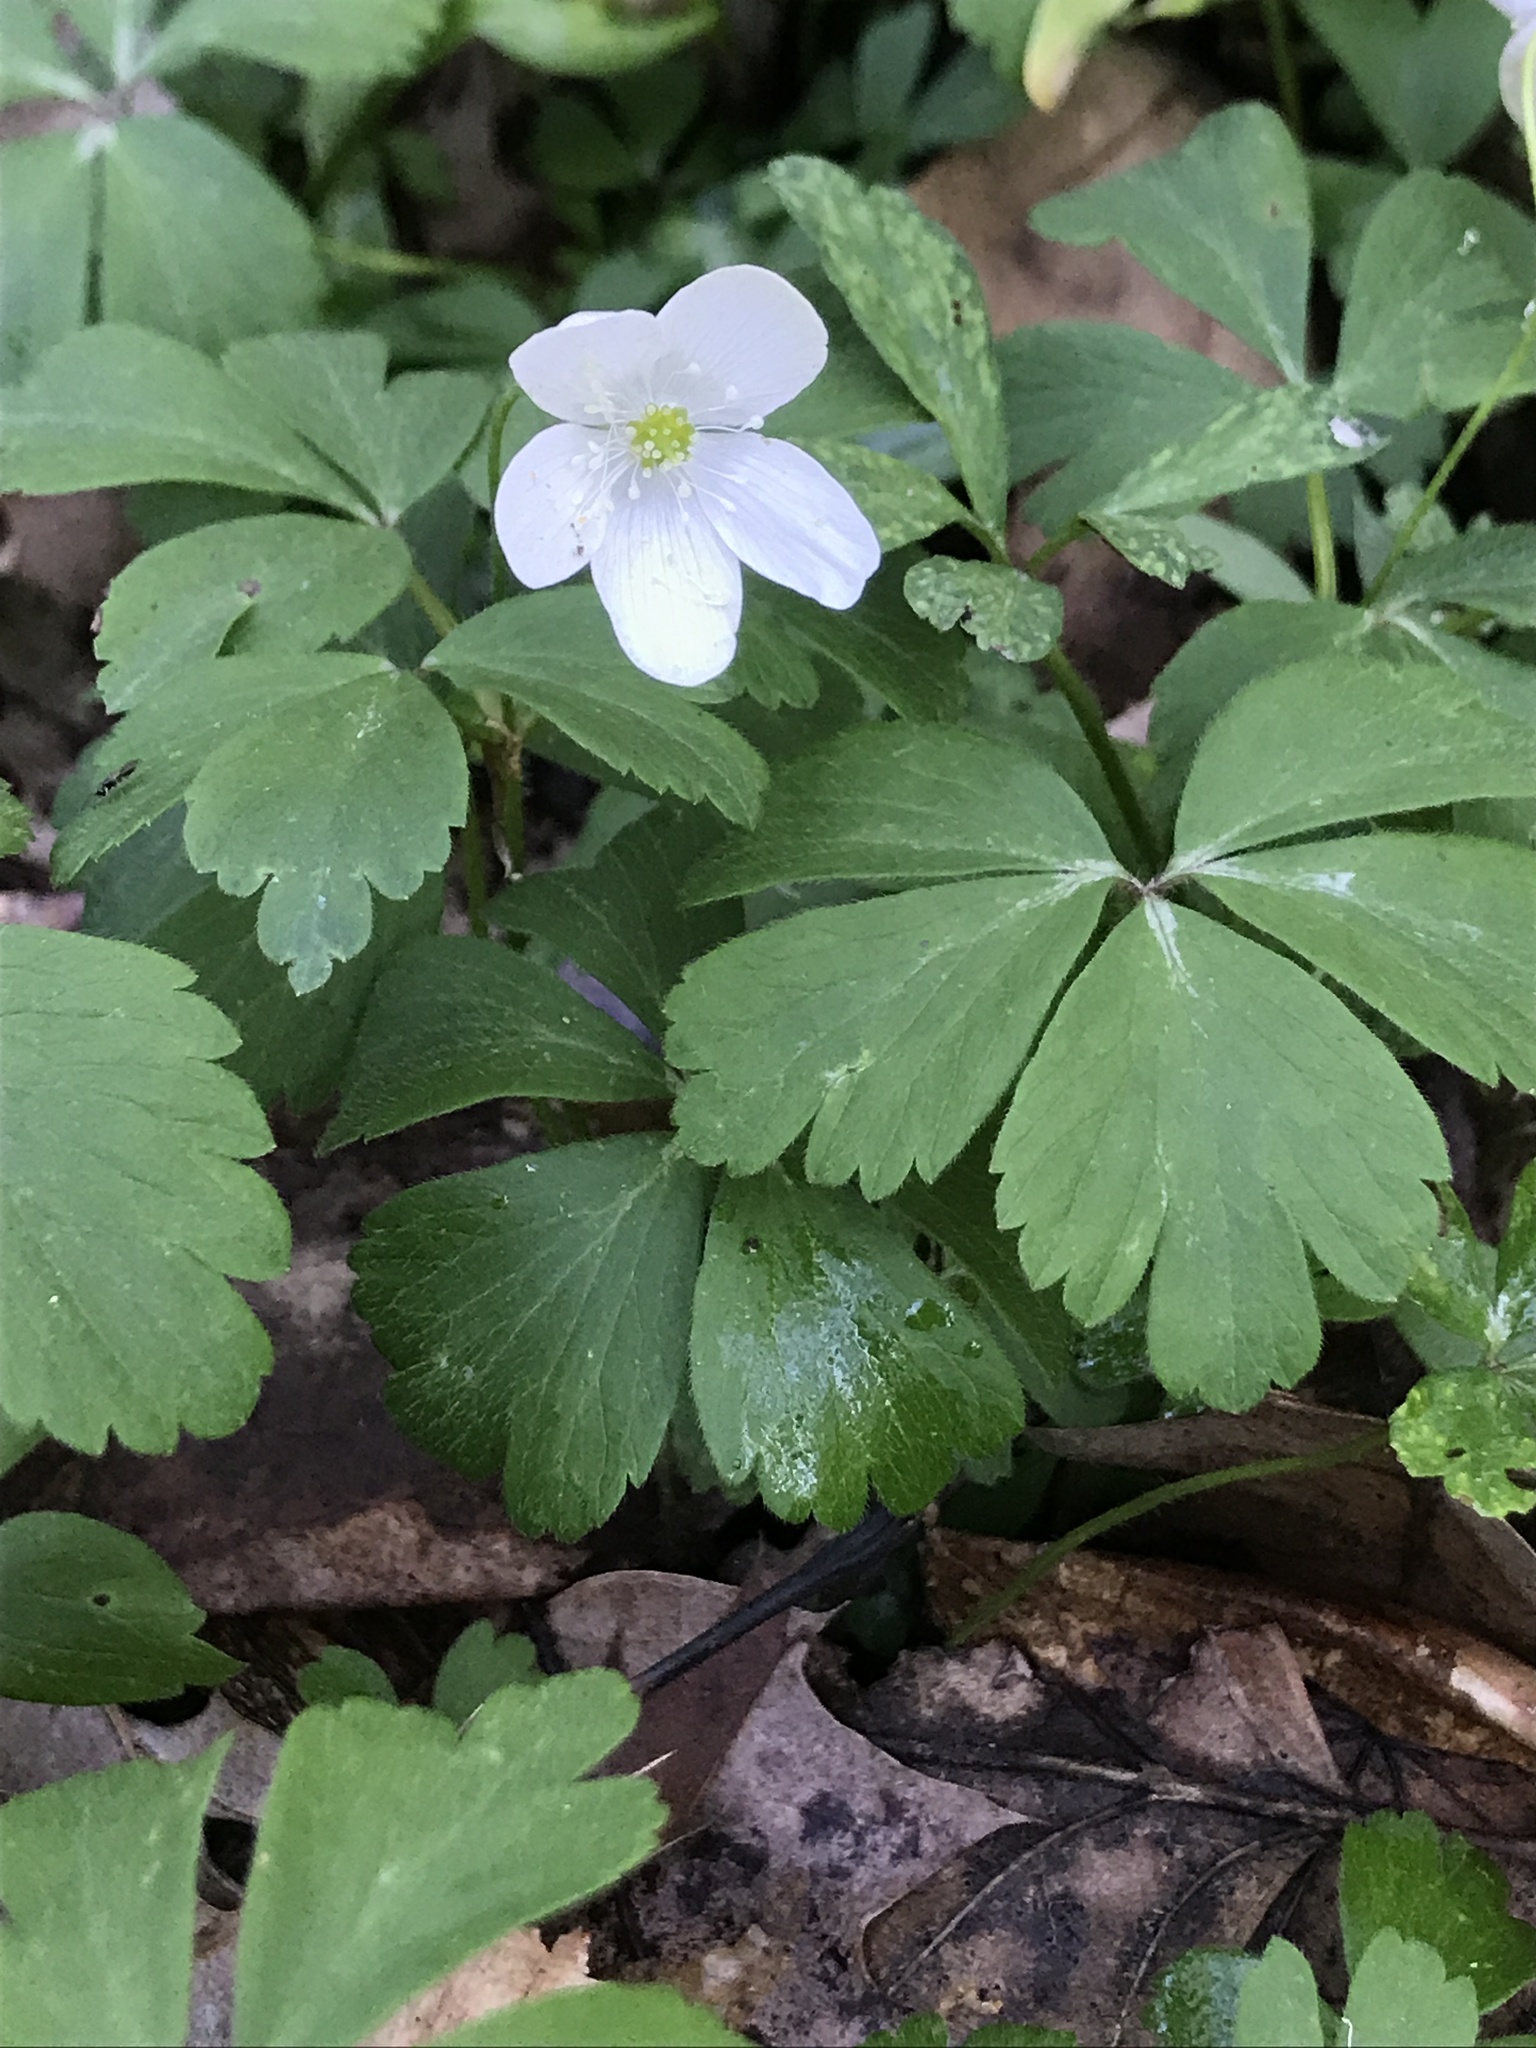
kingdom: Plantae
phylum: Tracheophyta
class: Magnoliopsida
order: Ranunculales
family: Ranunculaceae
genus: Anemone
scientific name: Anemone quinquefolia
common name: Wood anemone
